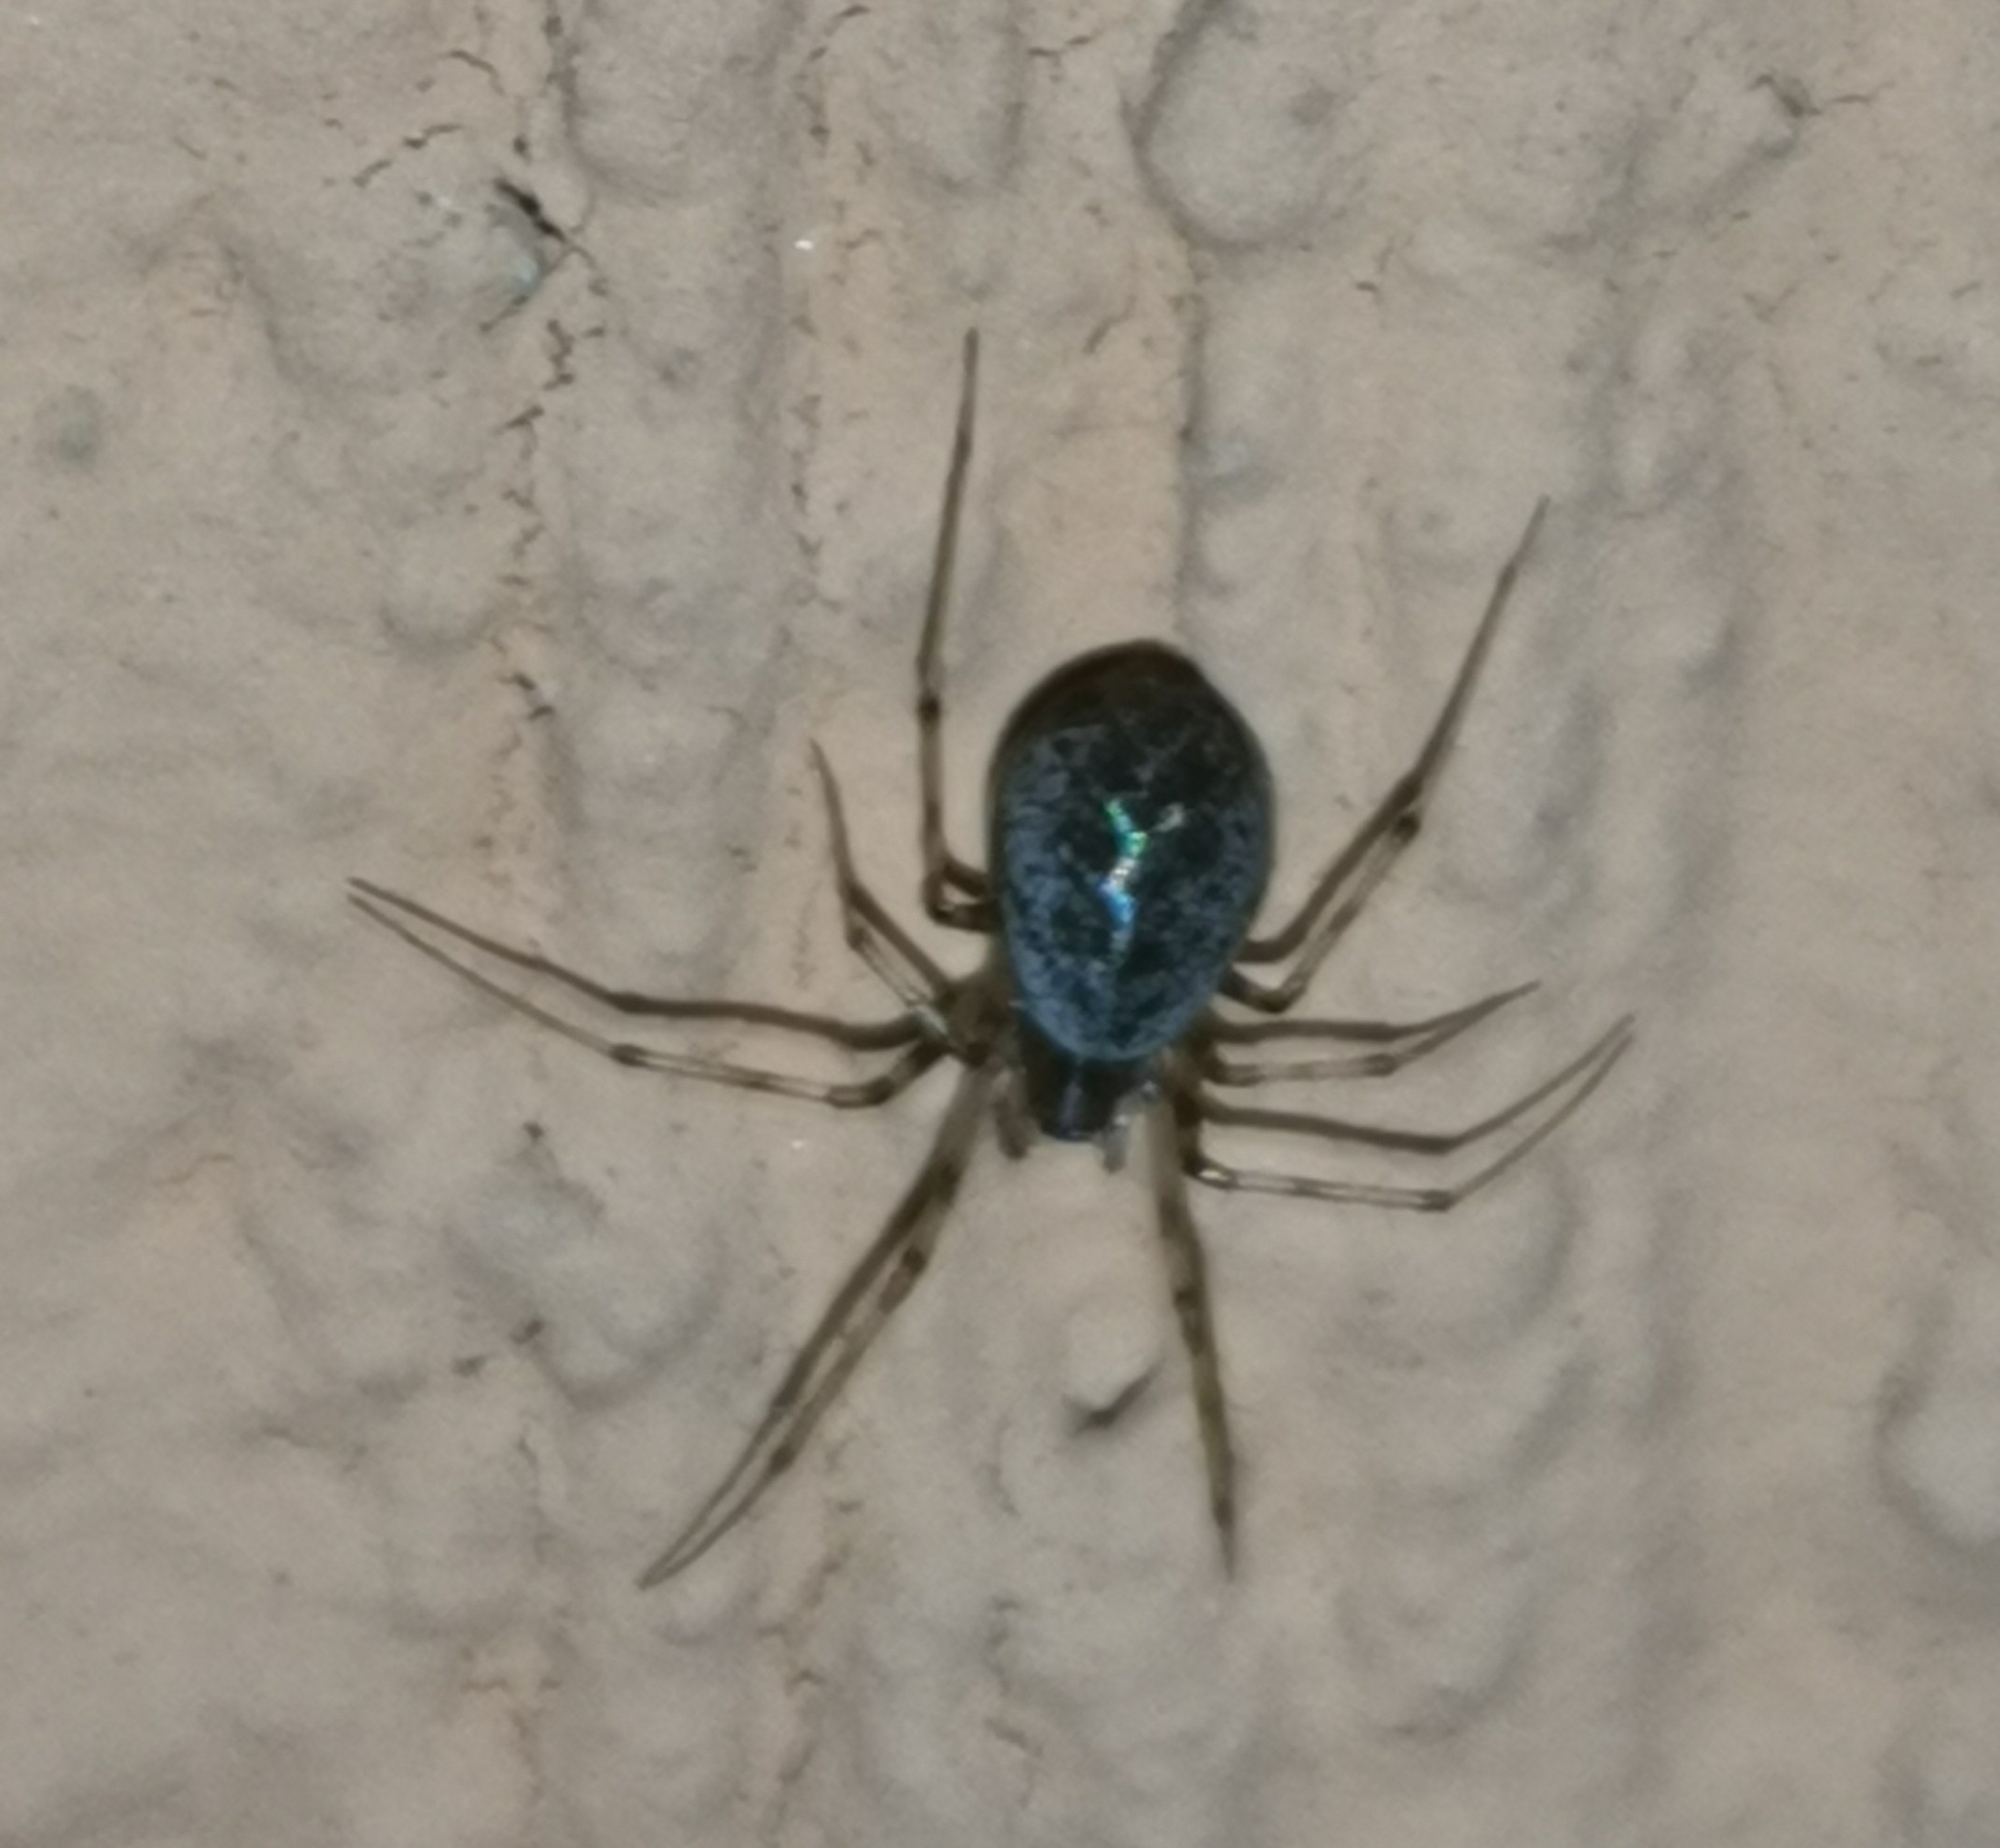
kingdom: Animalia
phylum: Arthropoda
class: Arachnida
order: Araneae
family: Linyphiidae
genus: Drapetisca
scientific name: Drapetisca socialis
